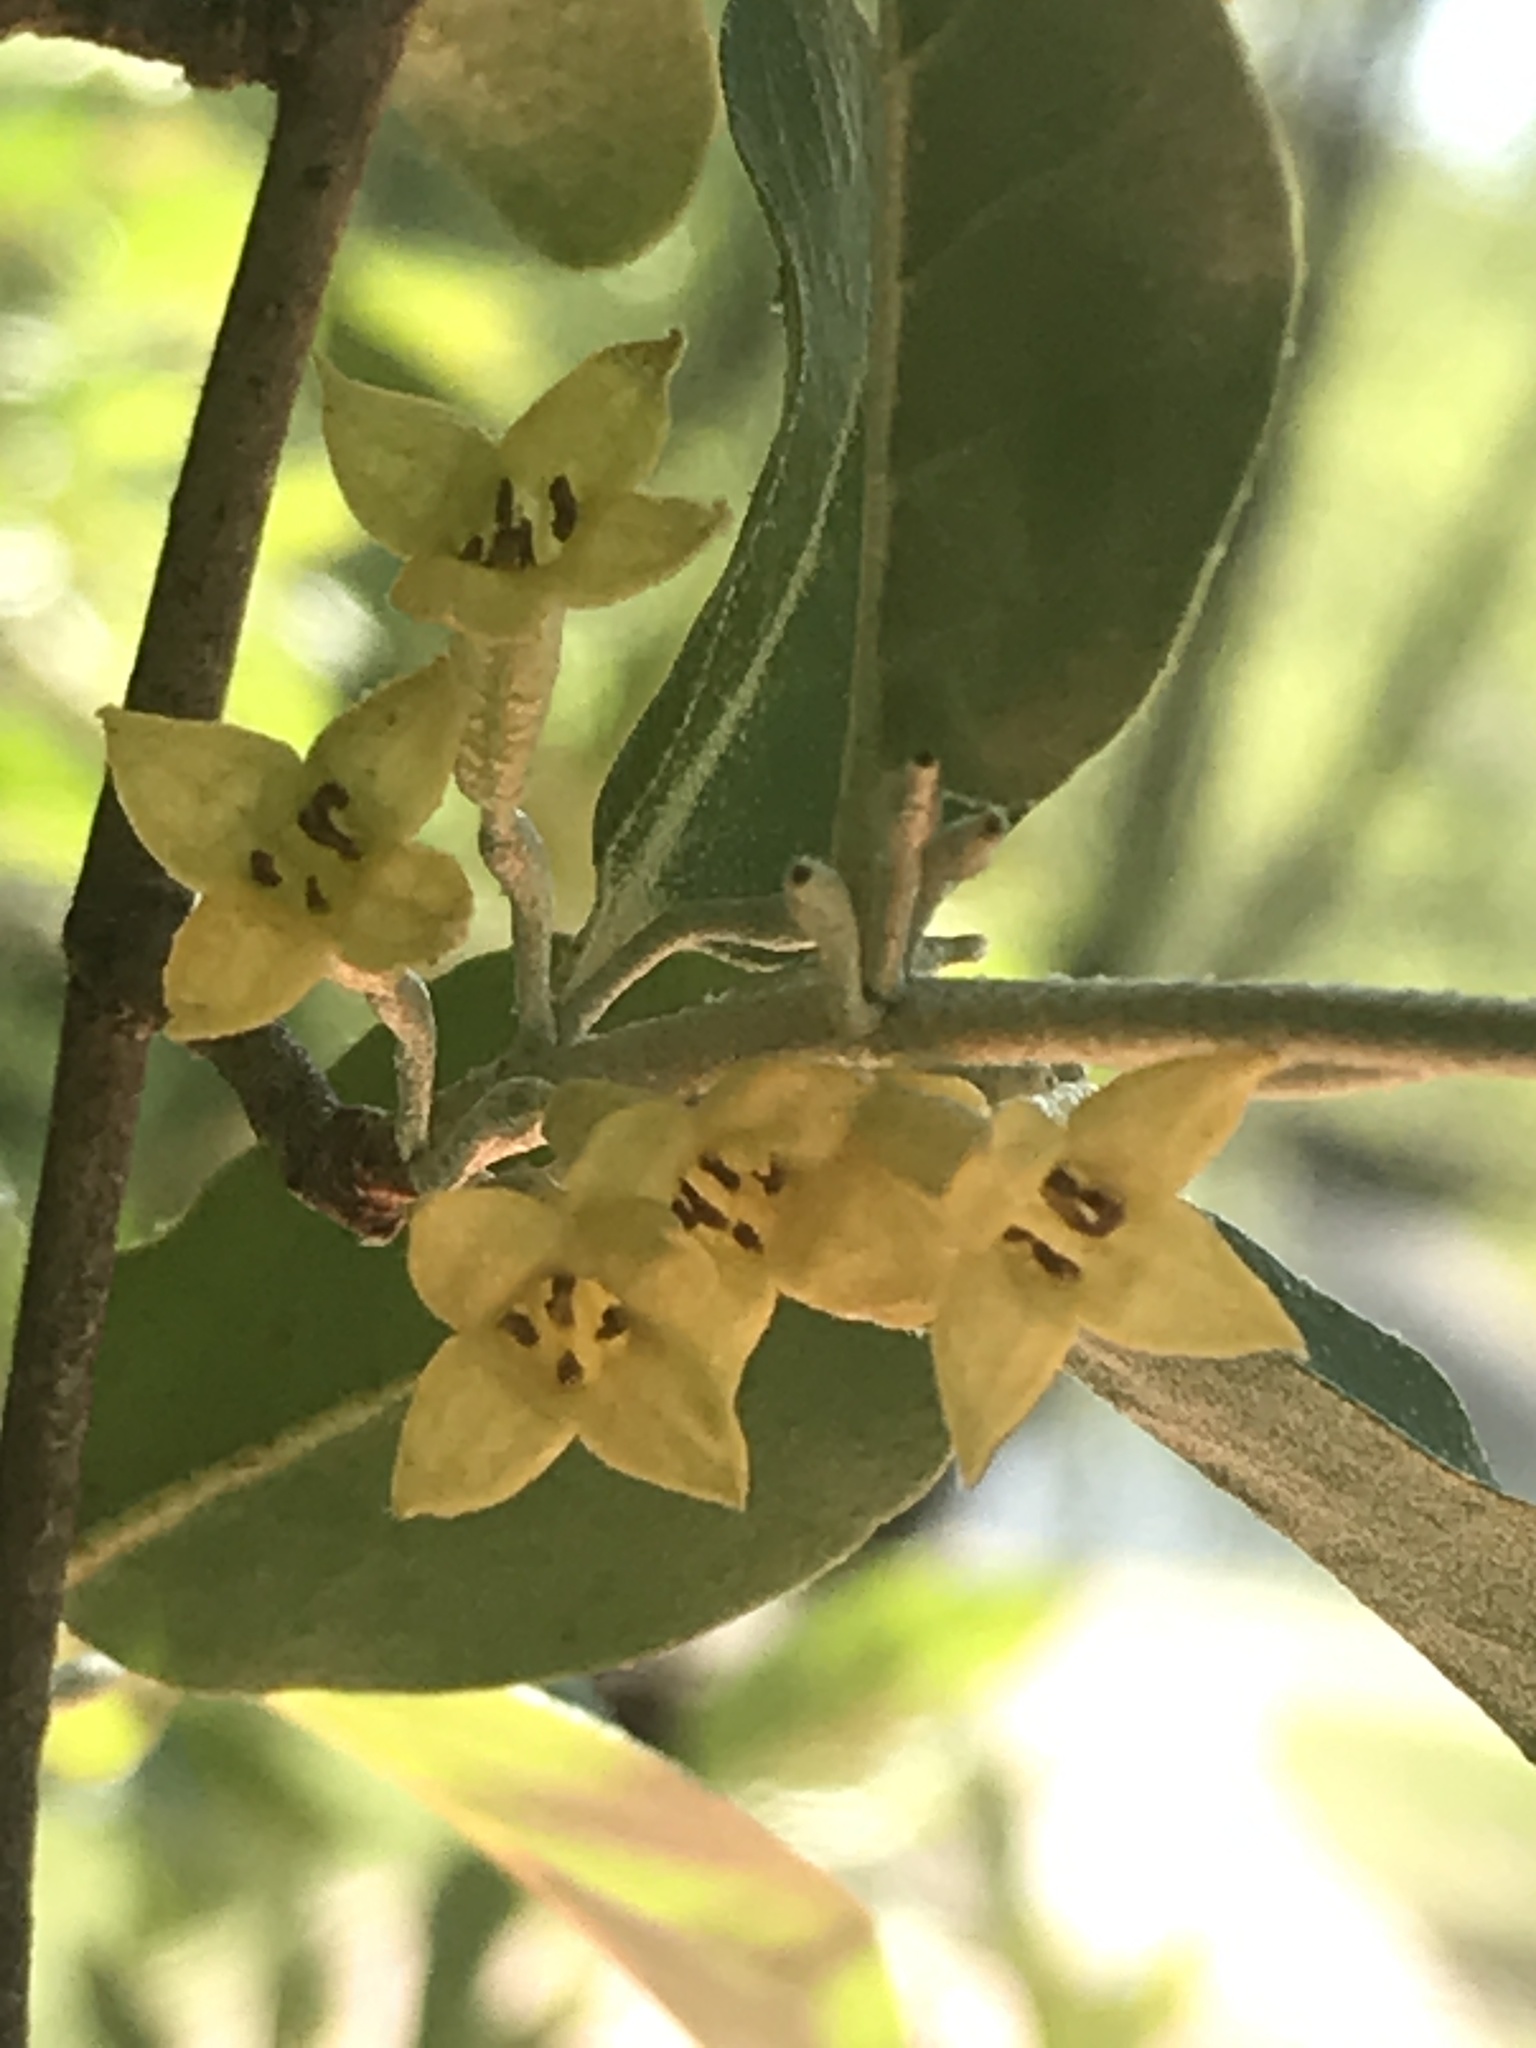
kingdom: Plantae
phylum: Tracheophyta
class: Magnoliopsida
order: Rosales
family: Elaeagnaceae
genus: Elaeagnus
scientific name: Elaeagnus umbellata
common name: Autumn olive
